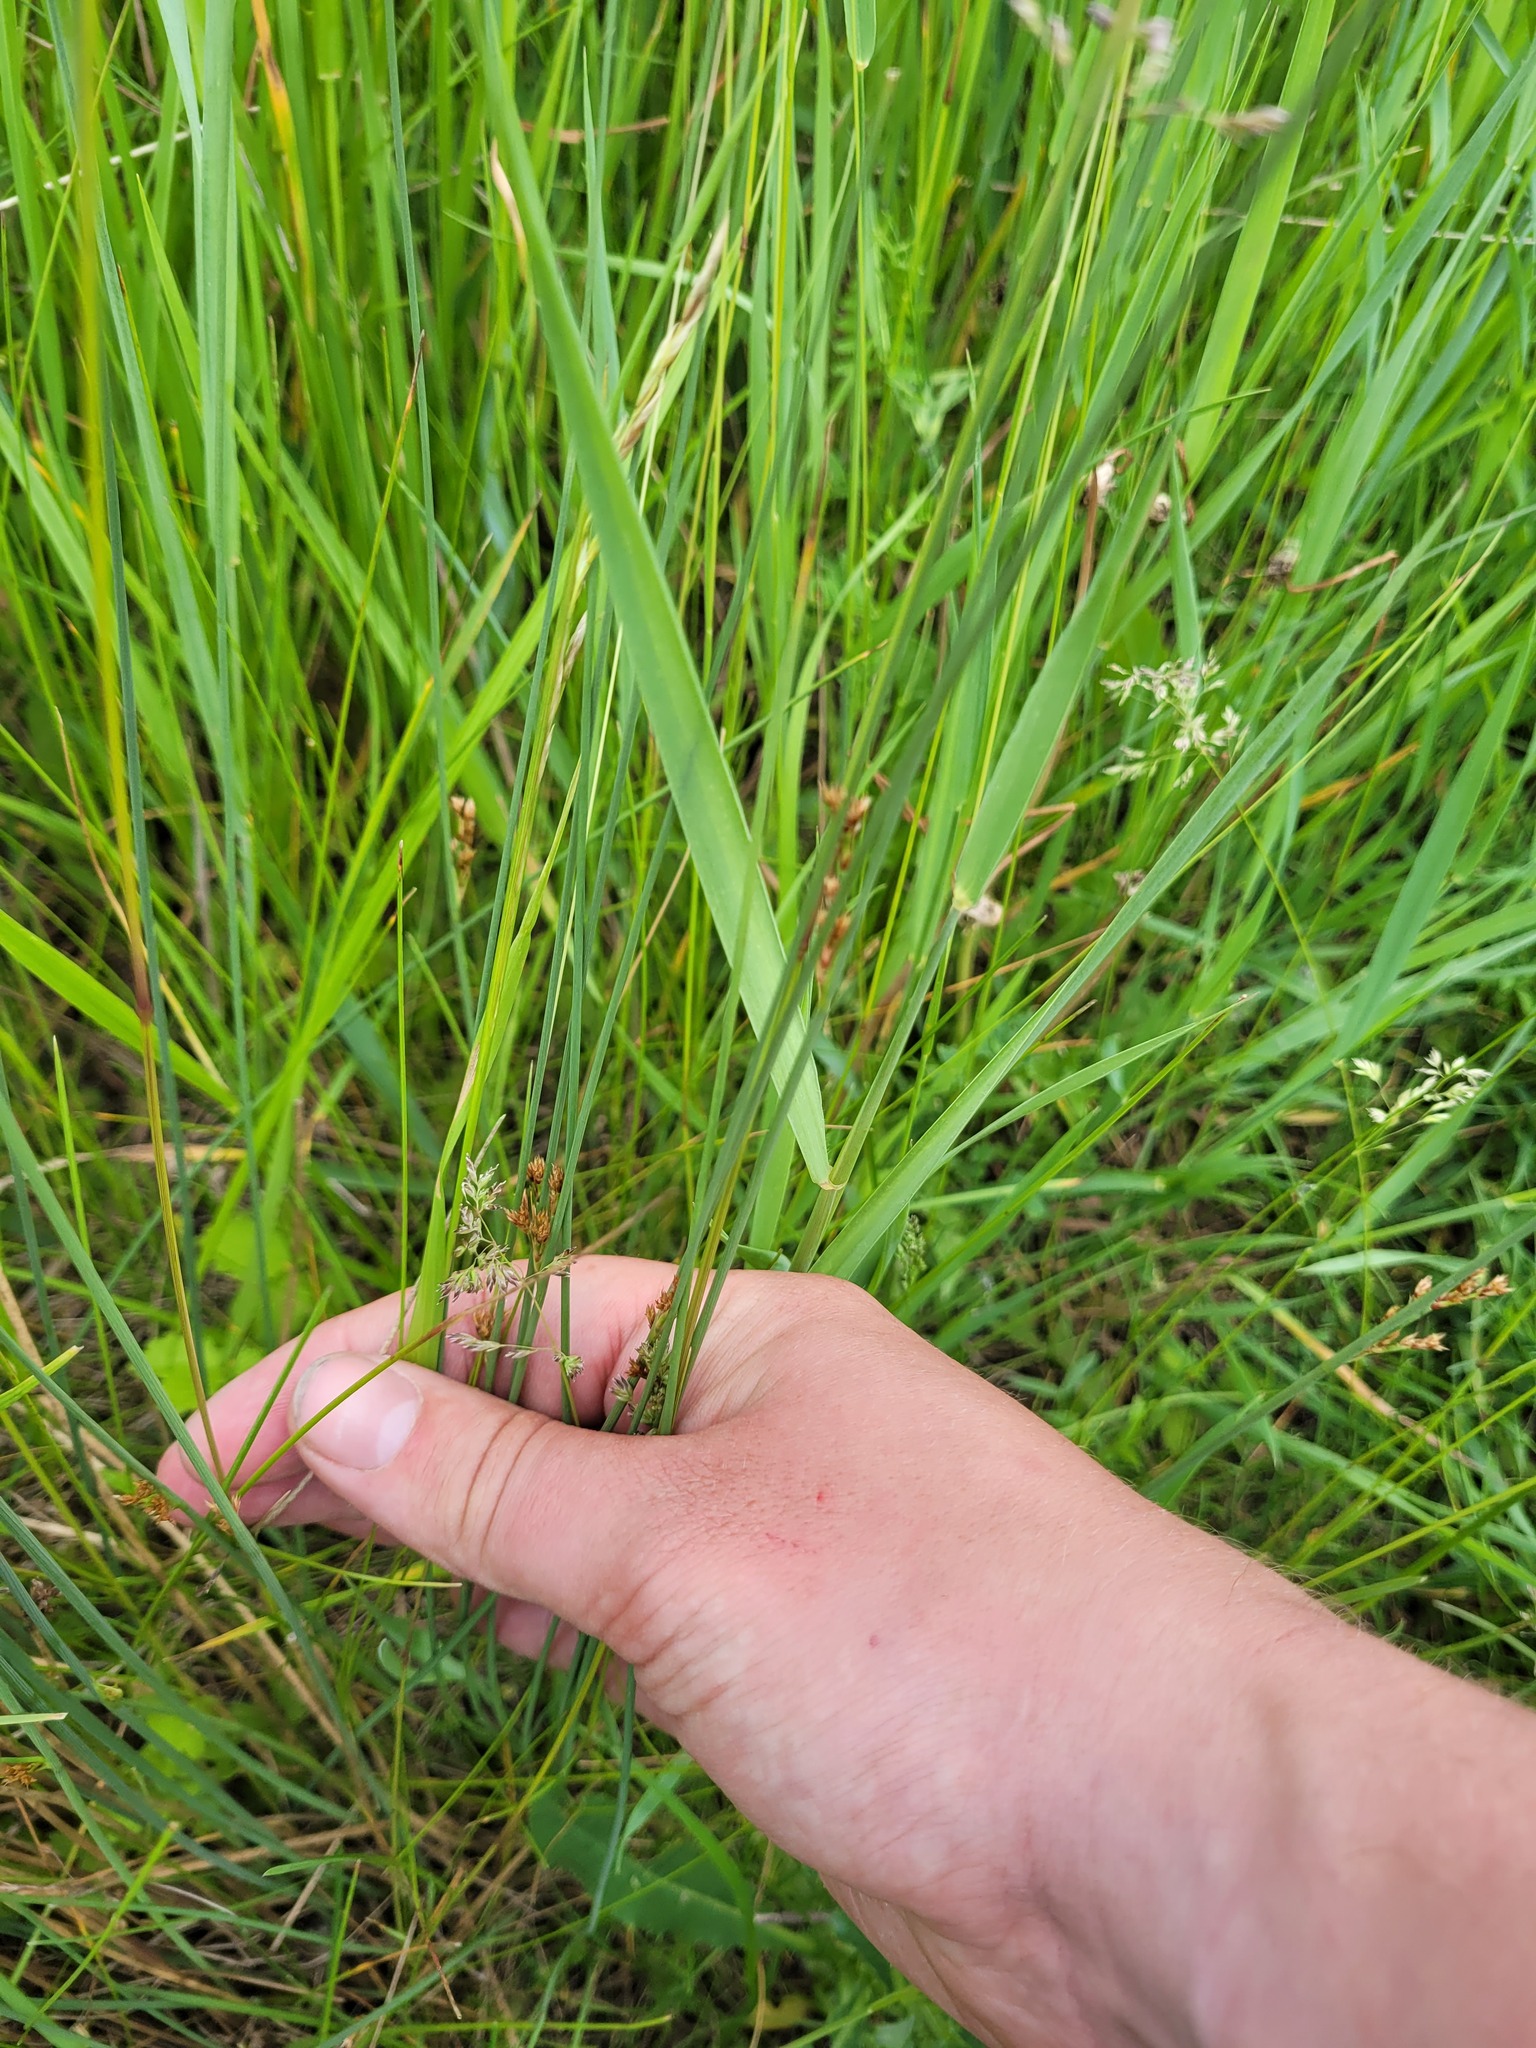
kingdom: Plantae
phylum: Tracheophyta
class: Liliopsida
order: Poales
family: Juncaceae
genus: Juncus
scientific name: Juncus inflexus
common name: Hard rush
